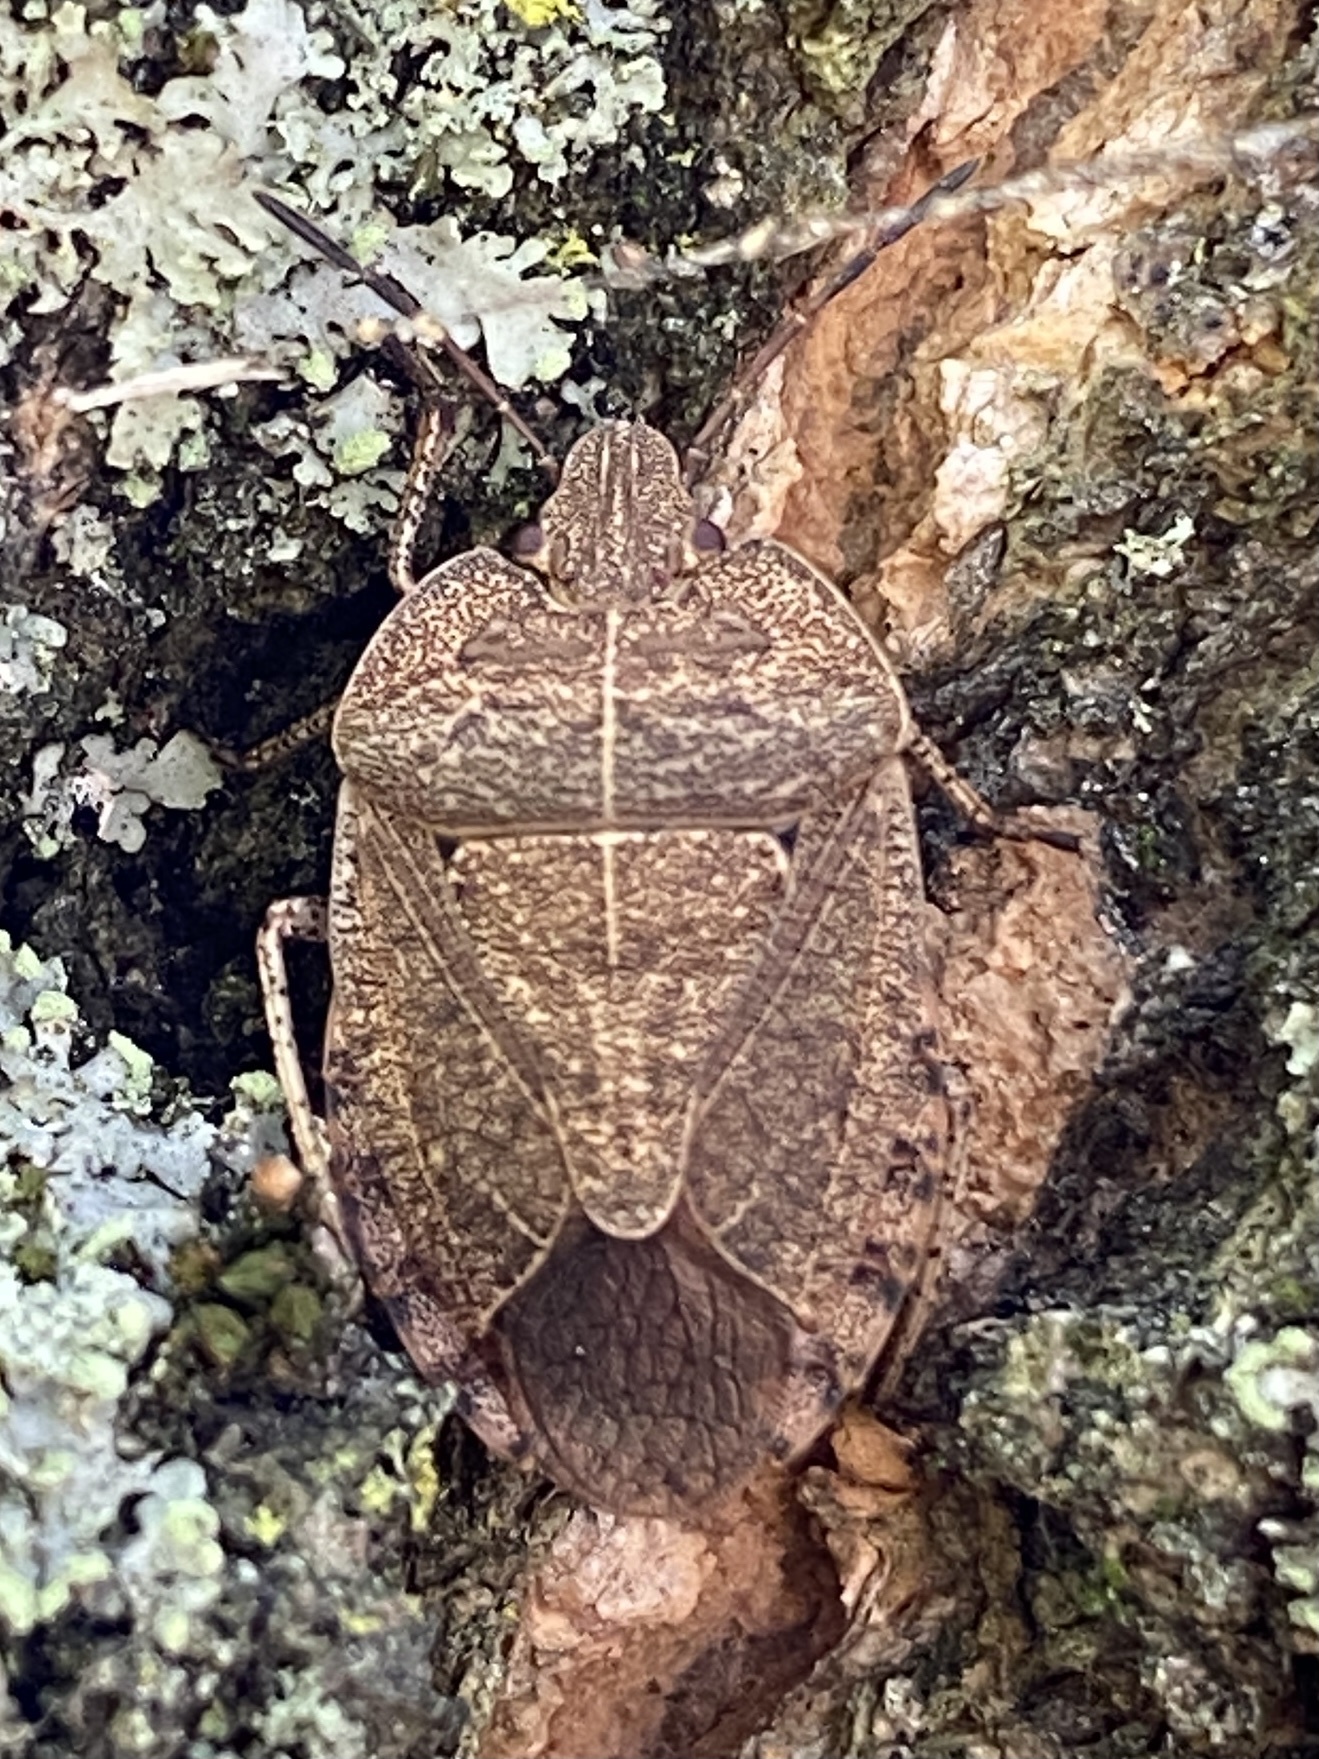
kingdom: Animalia
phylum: Arthropoda
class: Insecta
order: Hemiptera
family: Pentatomidae
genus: Menecles
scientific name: Menecles insertus
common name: Elf shoe stink bug
